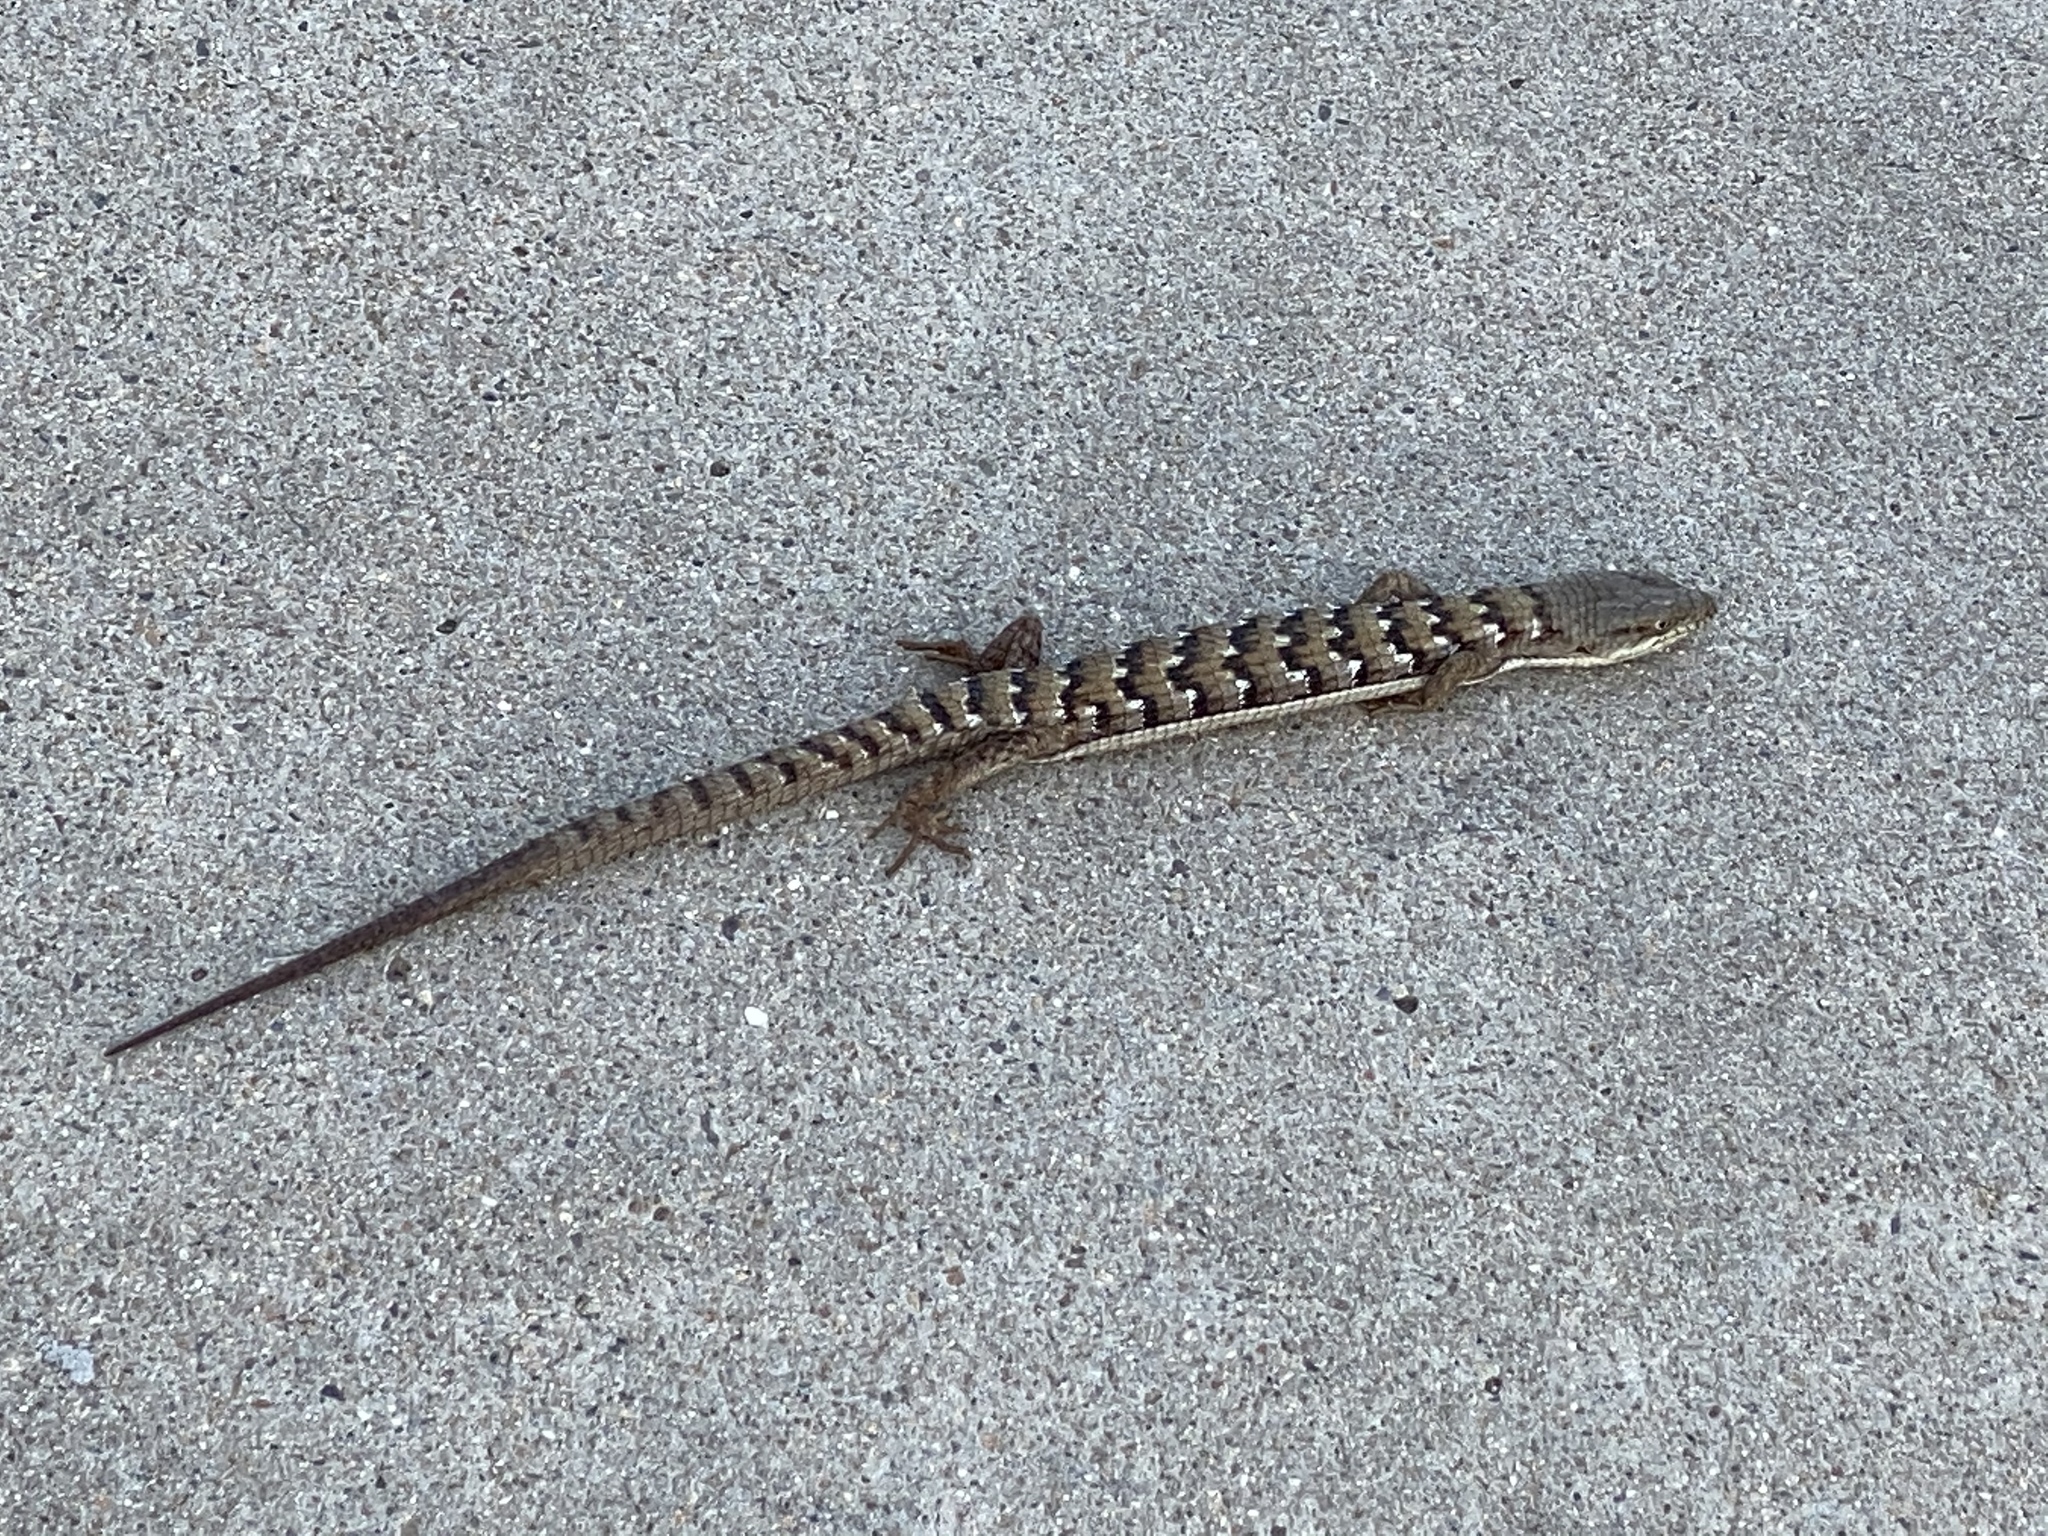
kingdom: Animalia
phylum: Chordata
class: Squamata
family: Anguidae
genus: Elgaria
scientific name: Elgaria multicarinata
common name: Southern alligator lizard
